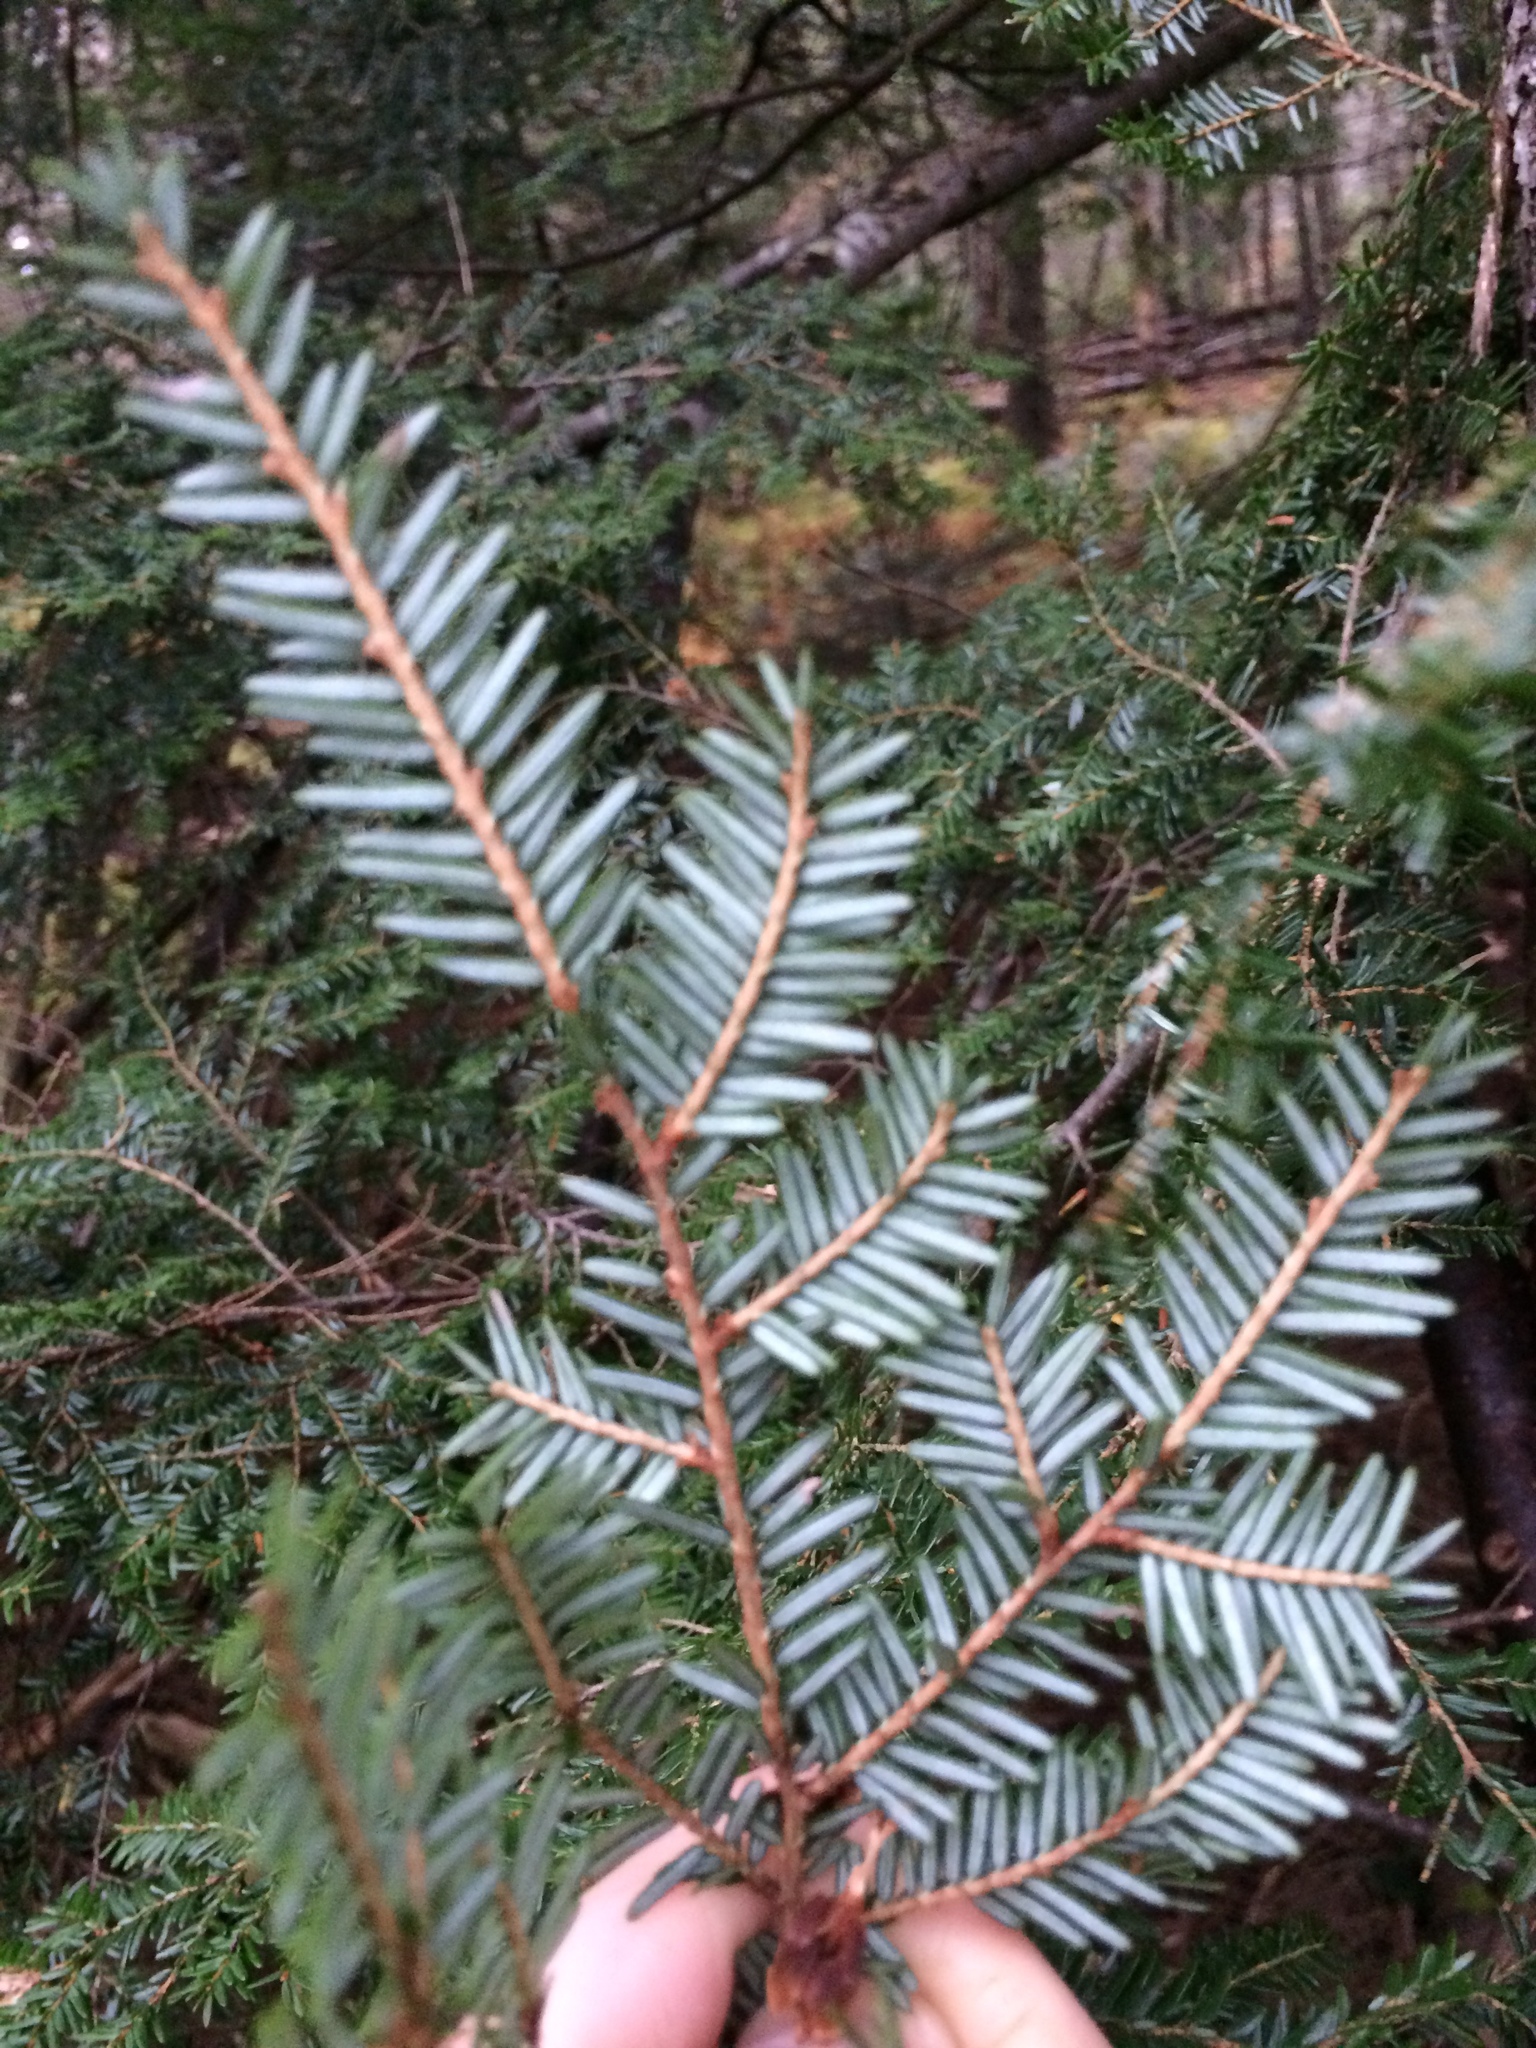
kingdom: Plantae
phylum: Tracheophyta
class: Pinopsida
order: Pinales
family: Pinaceae
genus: Tsuga
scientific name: Tsuga canadensis
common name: Eastern hemlock
